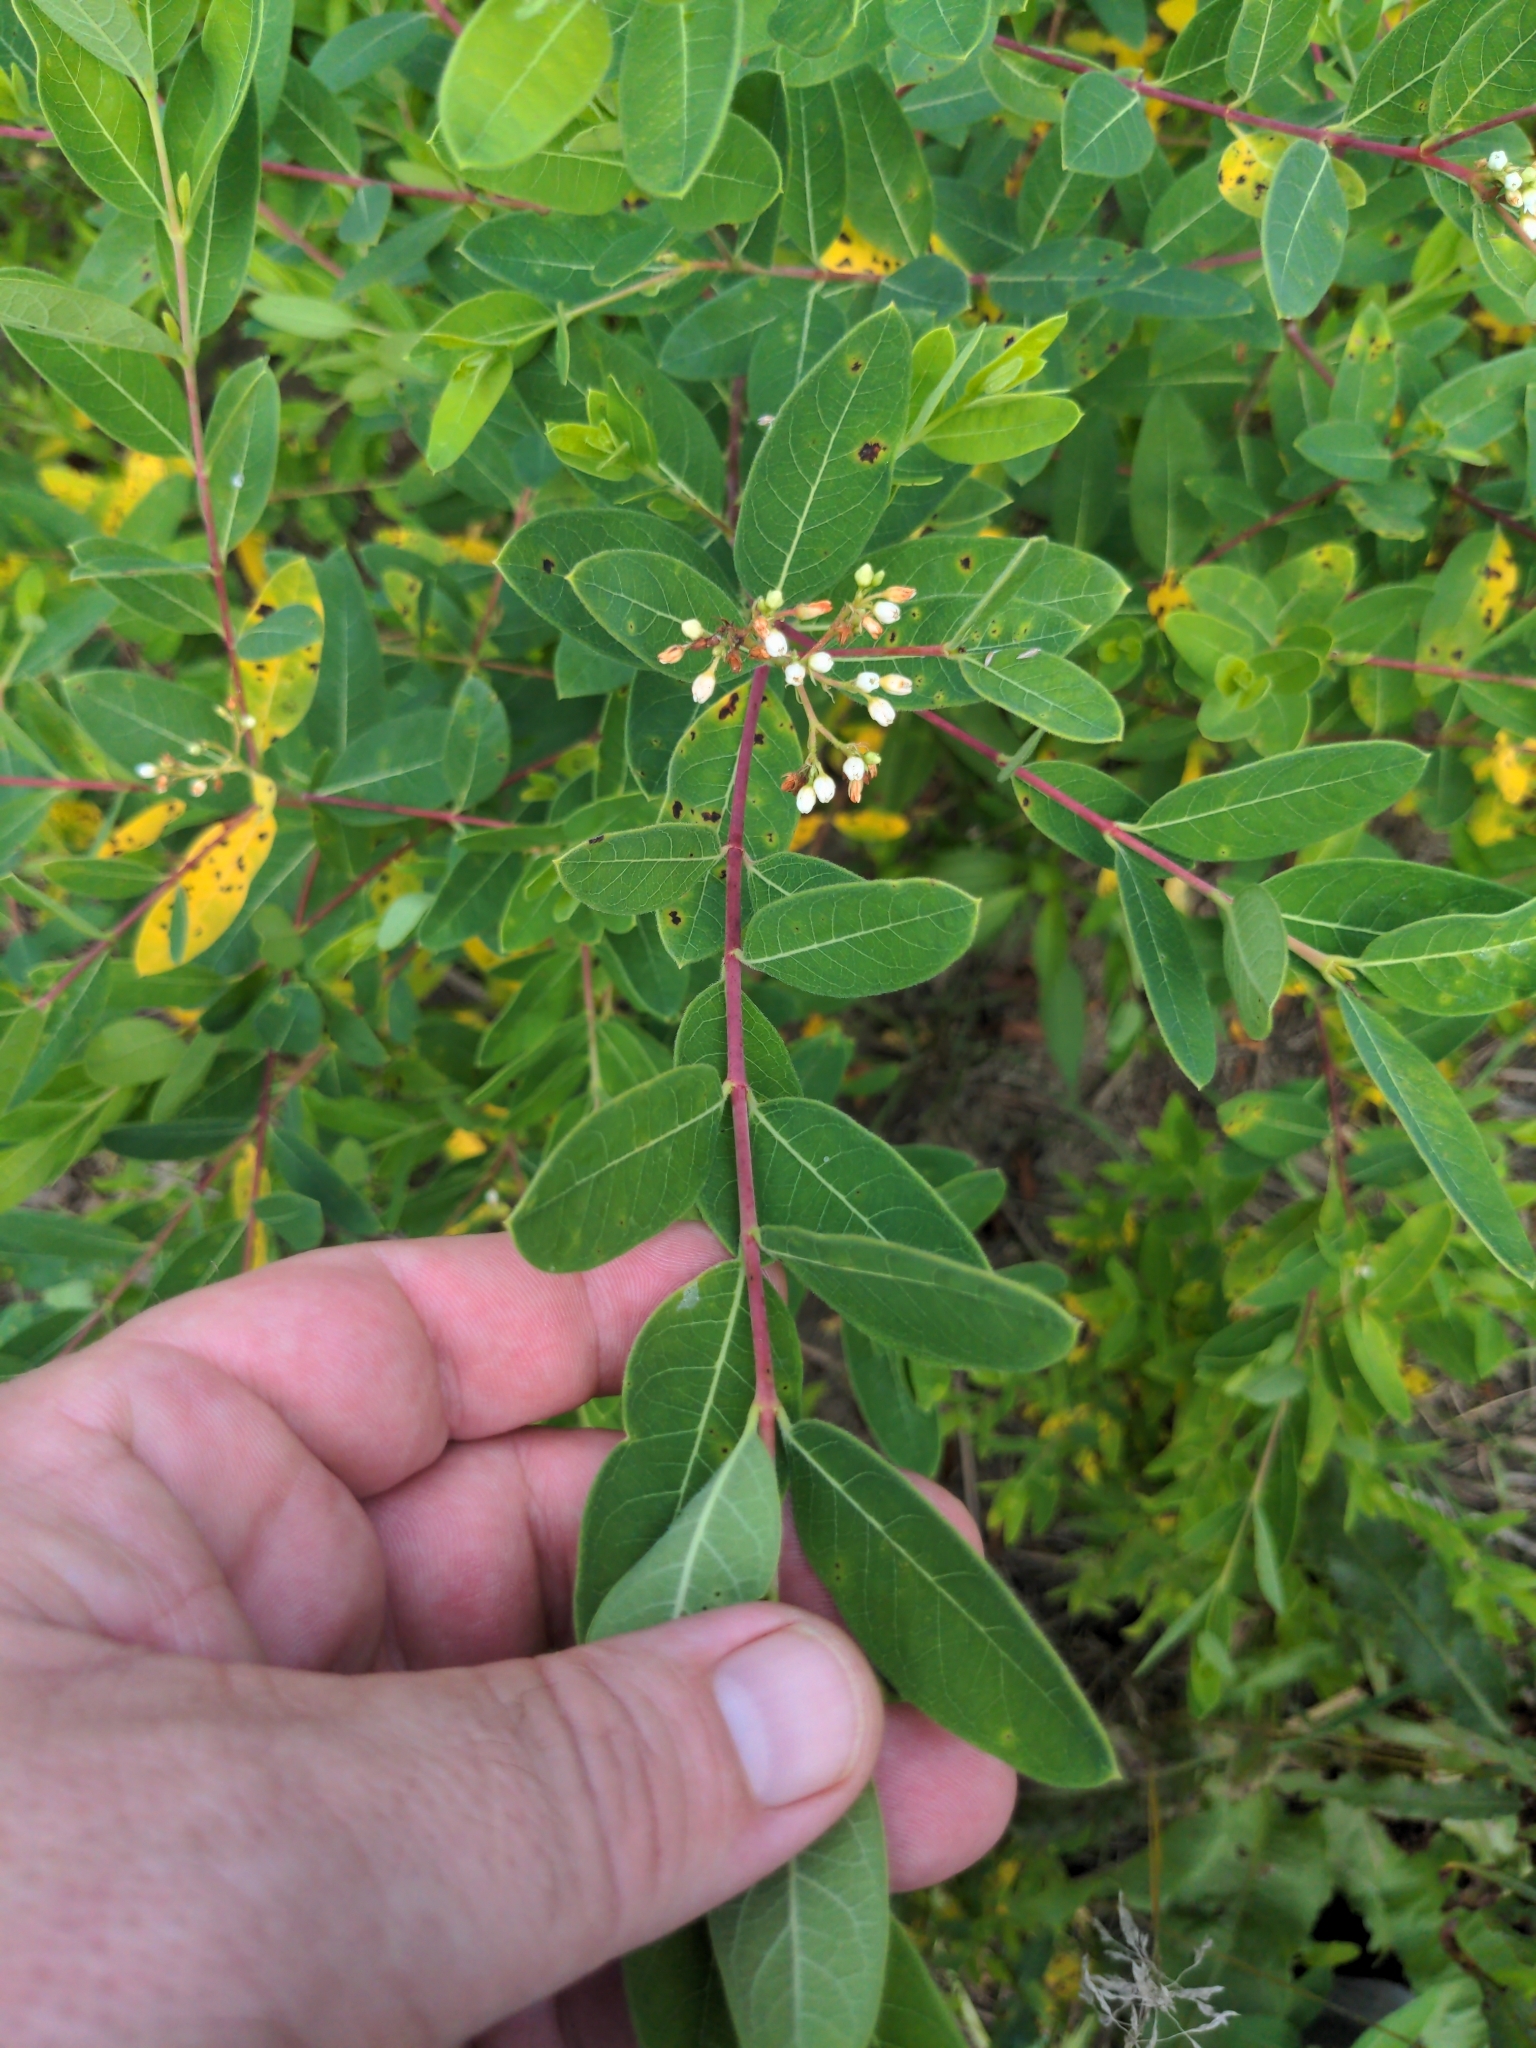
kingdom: Plantae
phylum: Tracheophyta
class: Magnoliopsida
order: Gentianales
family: Apocynaceae
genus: Apocynum
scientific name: Apocynum cannabinum
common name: Hemp dogbane
